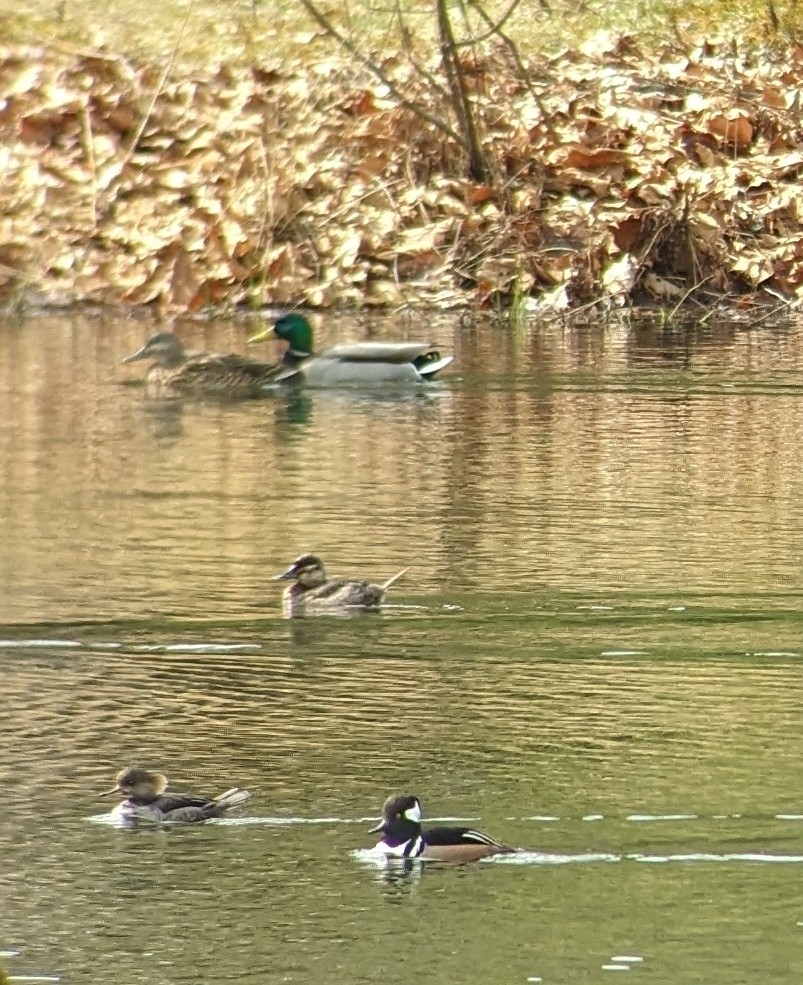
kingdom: Animalia
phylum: Chordata
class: Aves
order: Anseriformes
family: Anatidae
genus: Oxyura
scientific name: Oxyura jamaicensis
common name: Ruddy duck
